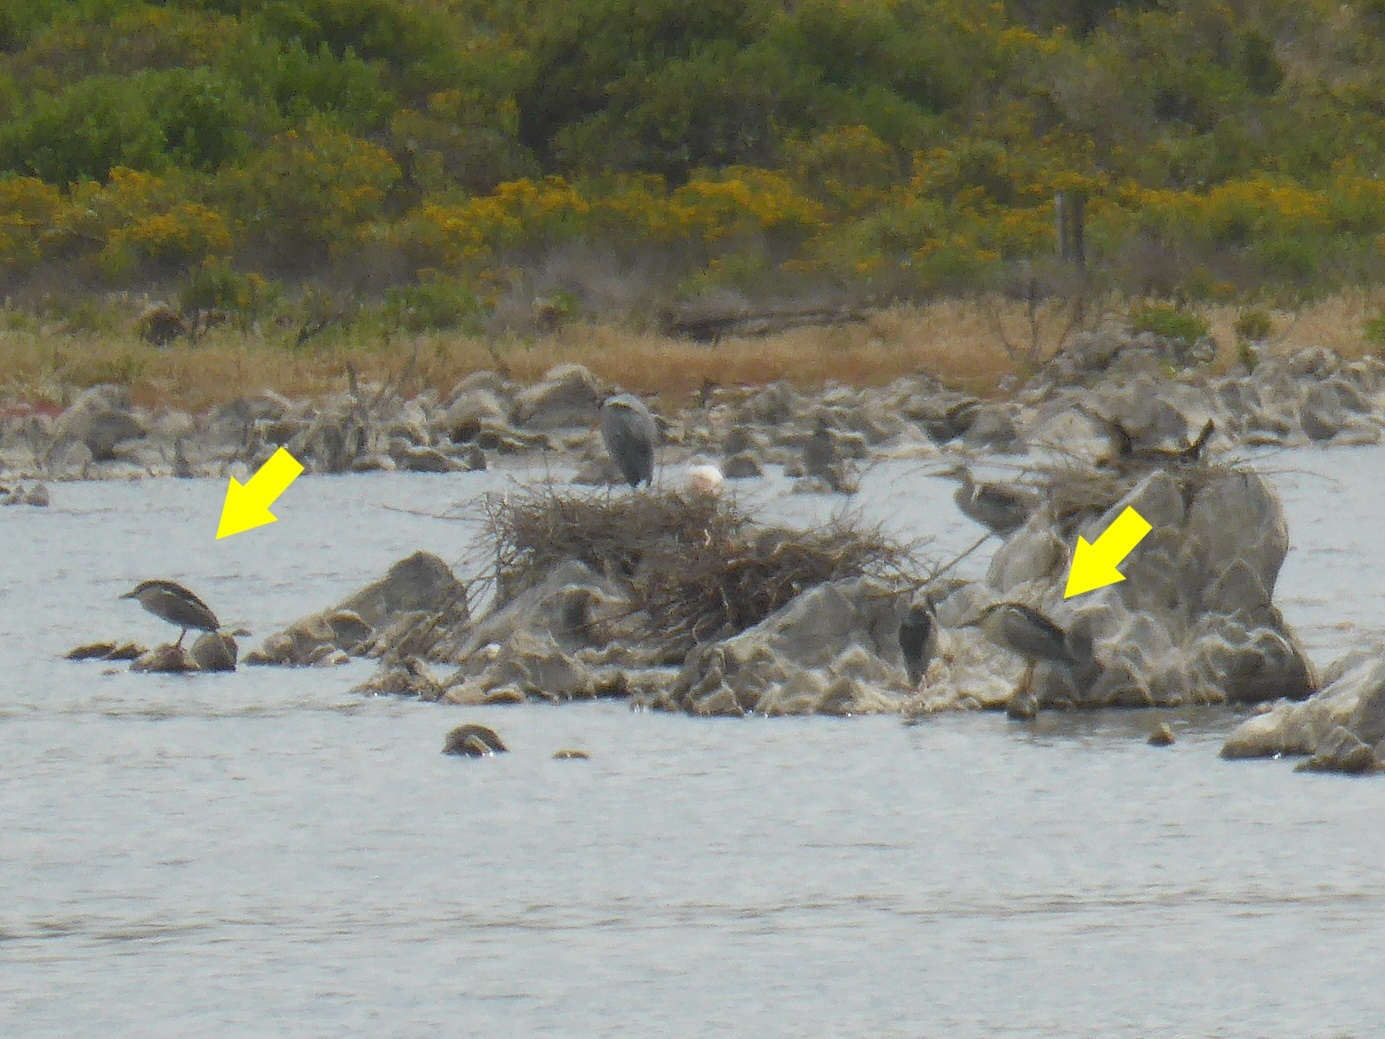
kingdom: Animalia
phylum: Chordata
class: Aves
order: Pelecaniformes
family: Ardeidae
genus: Nycticorax
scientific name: Nycticorax nycticorax
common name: Black-crowned night heron
